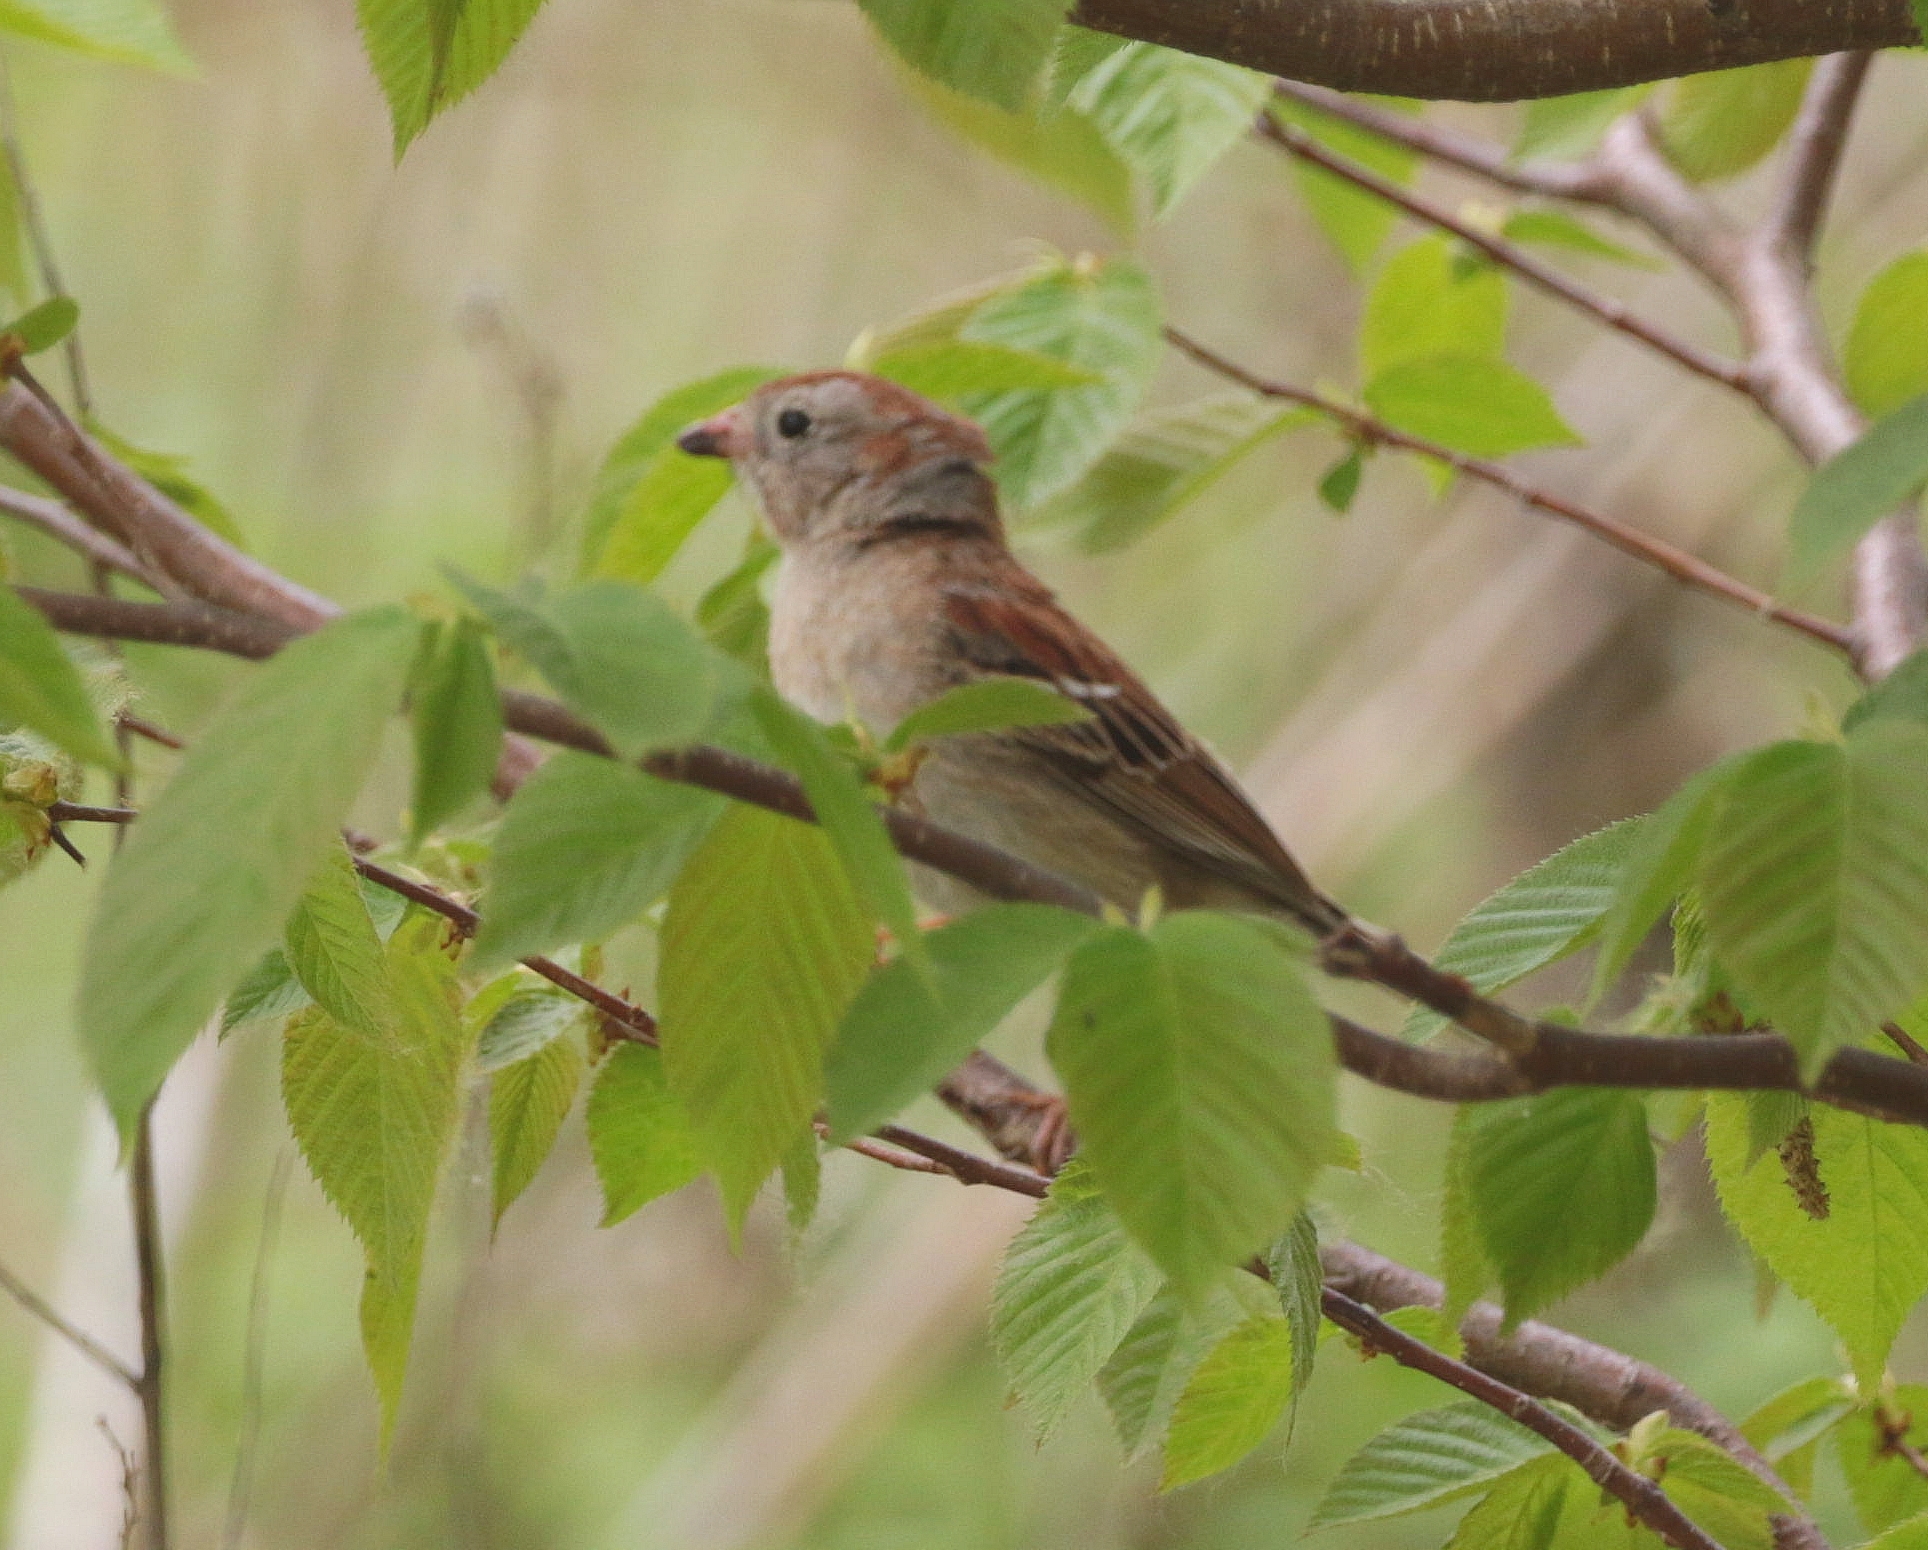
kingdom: Animalia
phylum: Chordata
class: Aves
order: Passeriformes
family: Passerellidae
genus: Spizella
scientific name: Spizella pusilla
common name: Field sparrow
